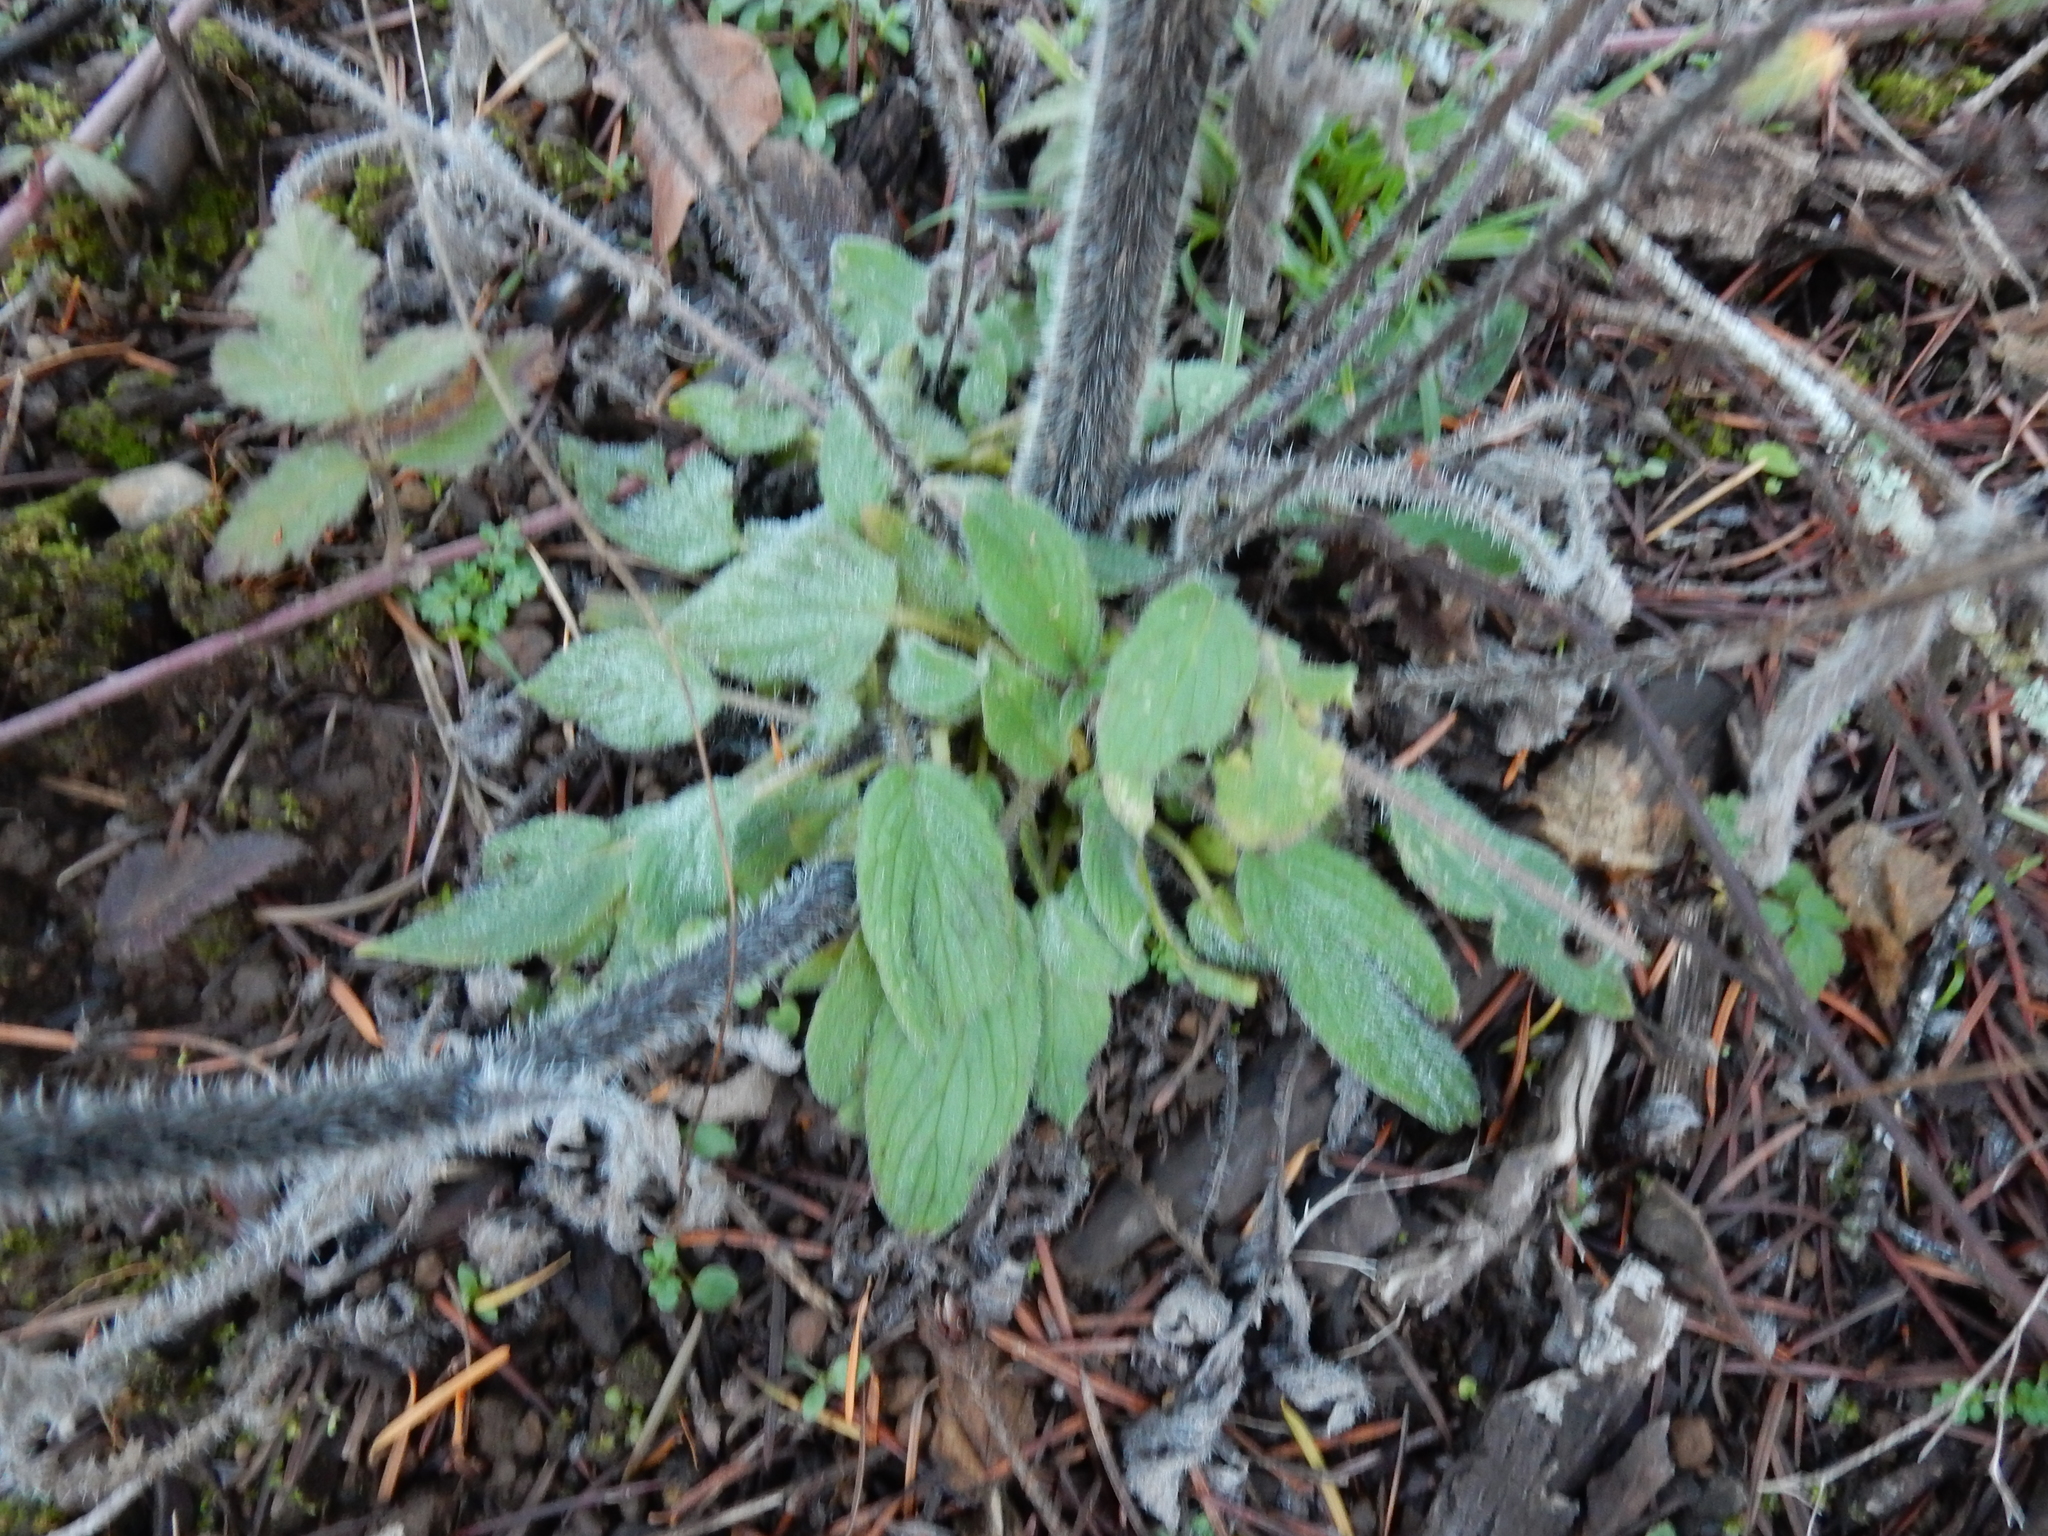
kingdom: Plantae
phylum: Tracheophyta
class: Magnoliopsida
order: Boraginales
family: Hydrophyllaceae
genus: Phacelia
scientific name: Phacelia nemoralis
